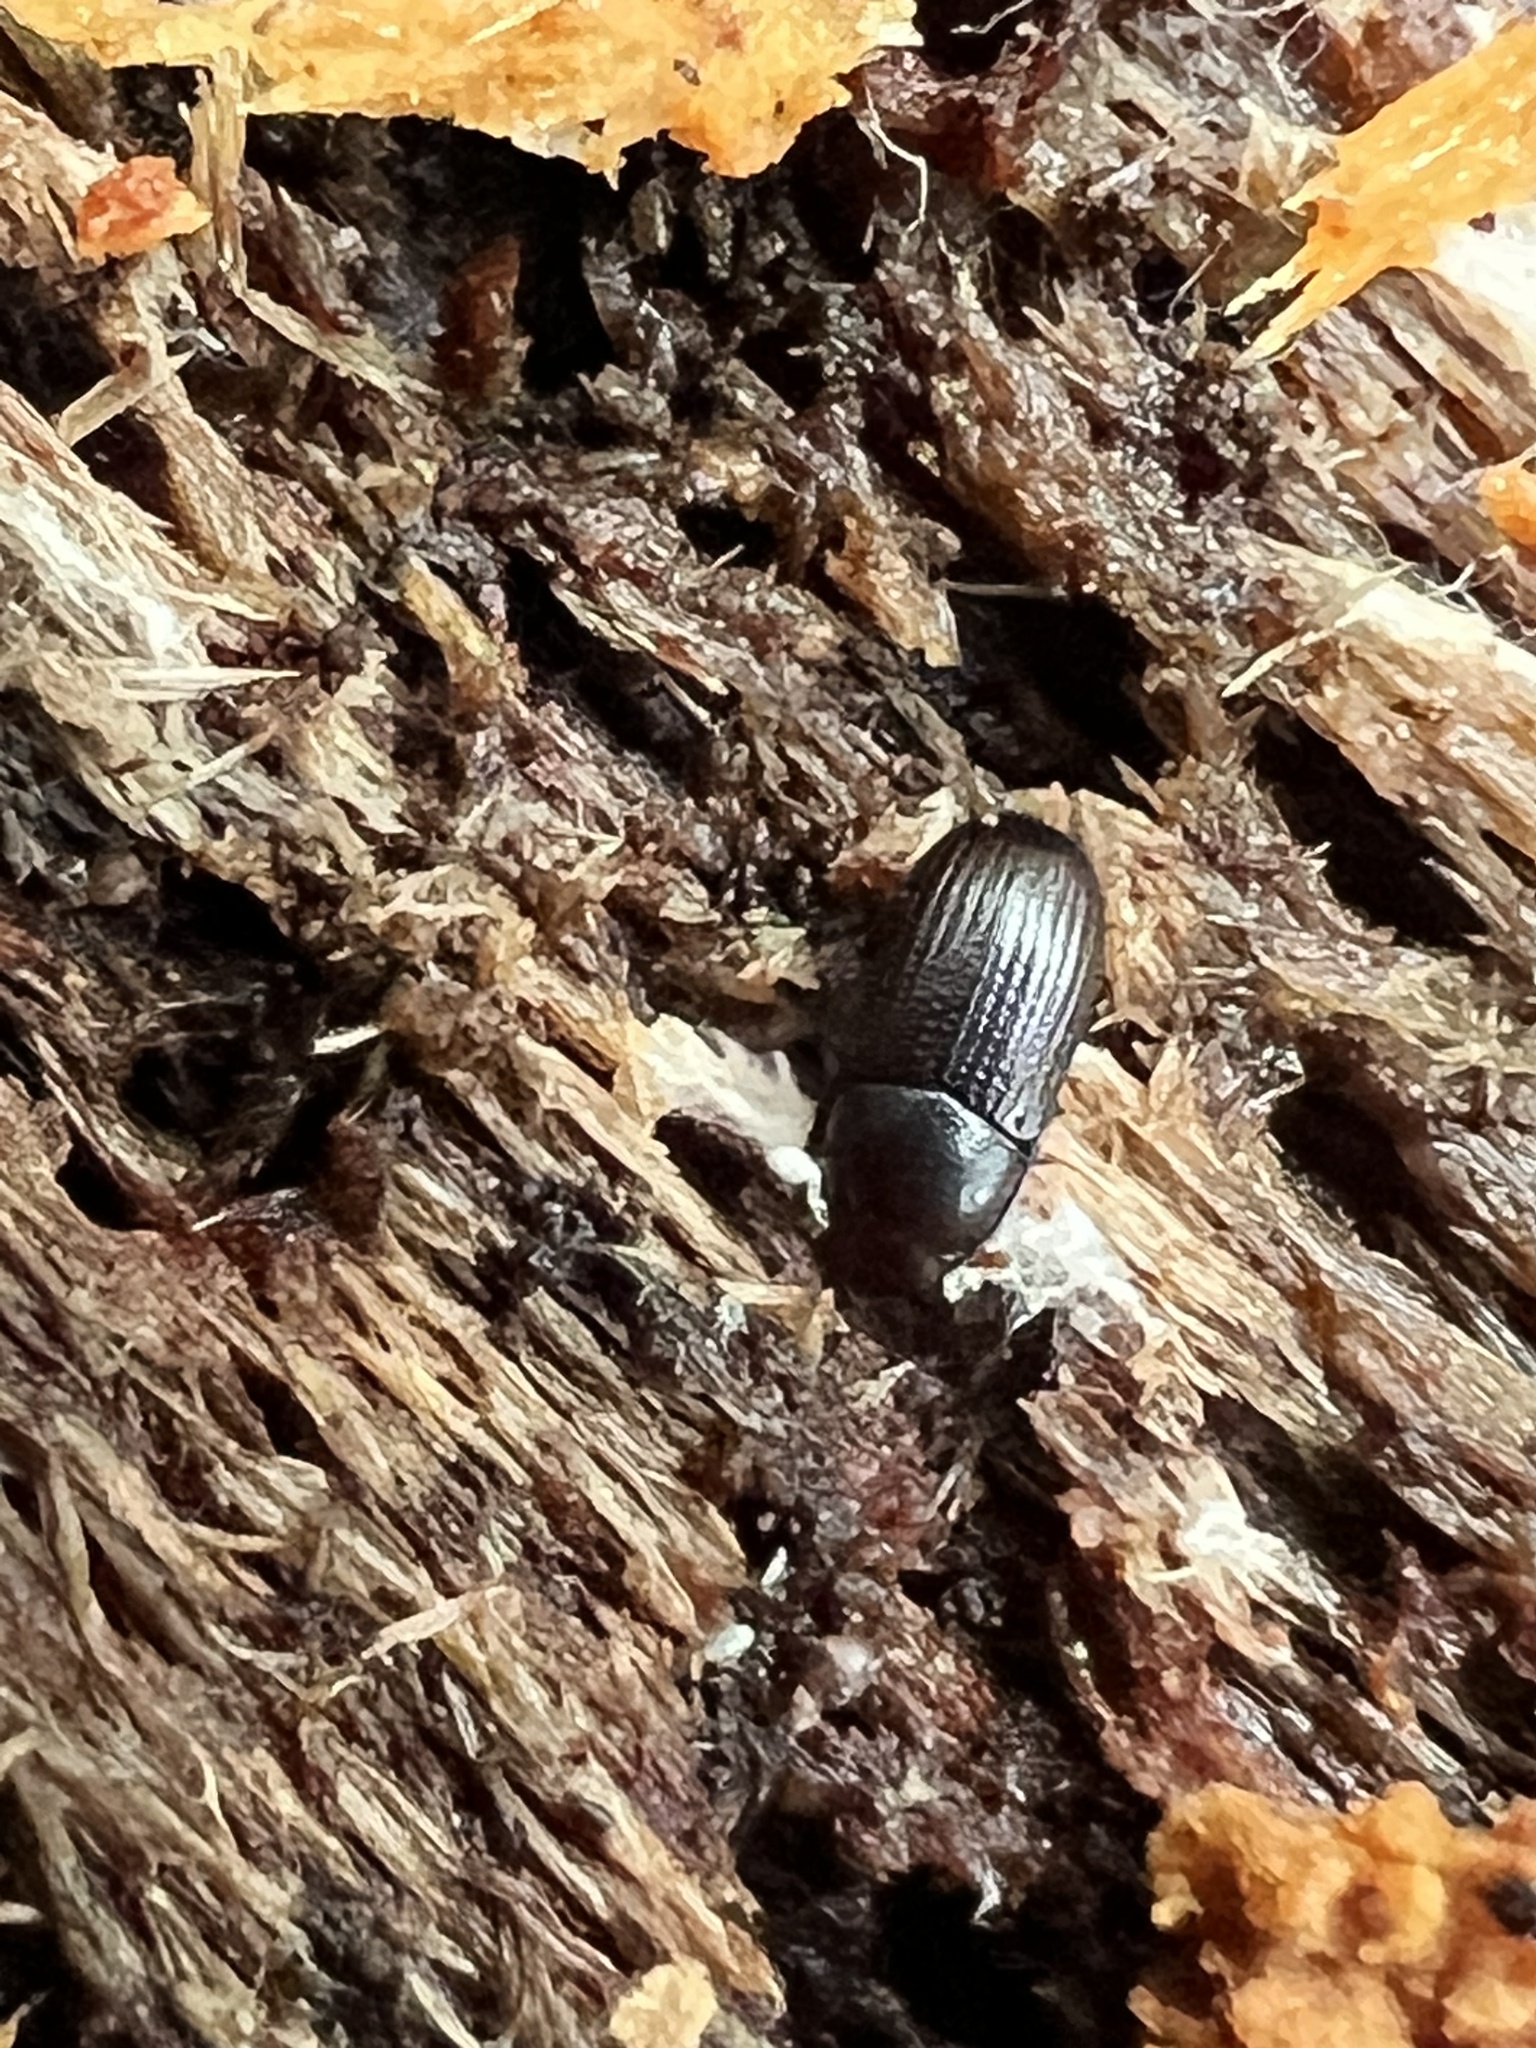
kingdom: Animalia
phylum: Arthropoda
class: Insecta
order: Coleoptera
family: Tenebrionidae
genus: Clamoris
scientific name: Clamoris americana
